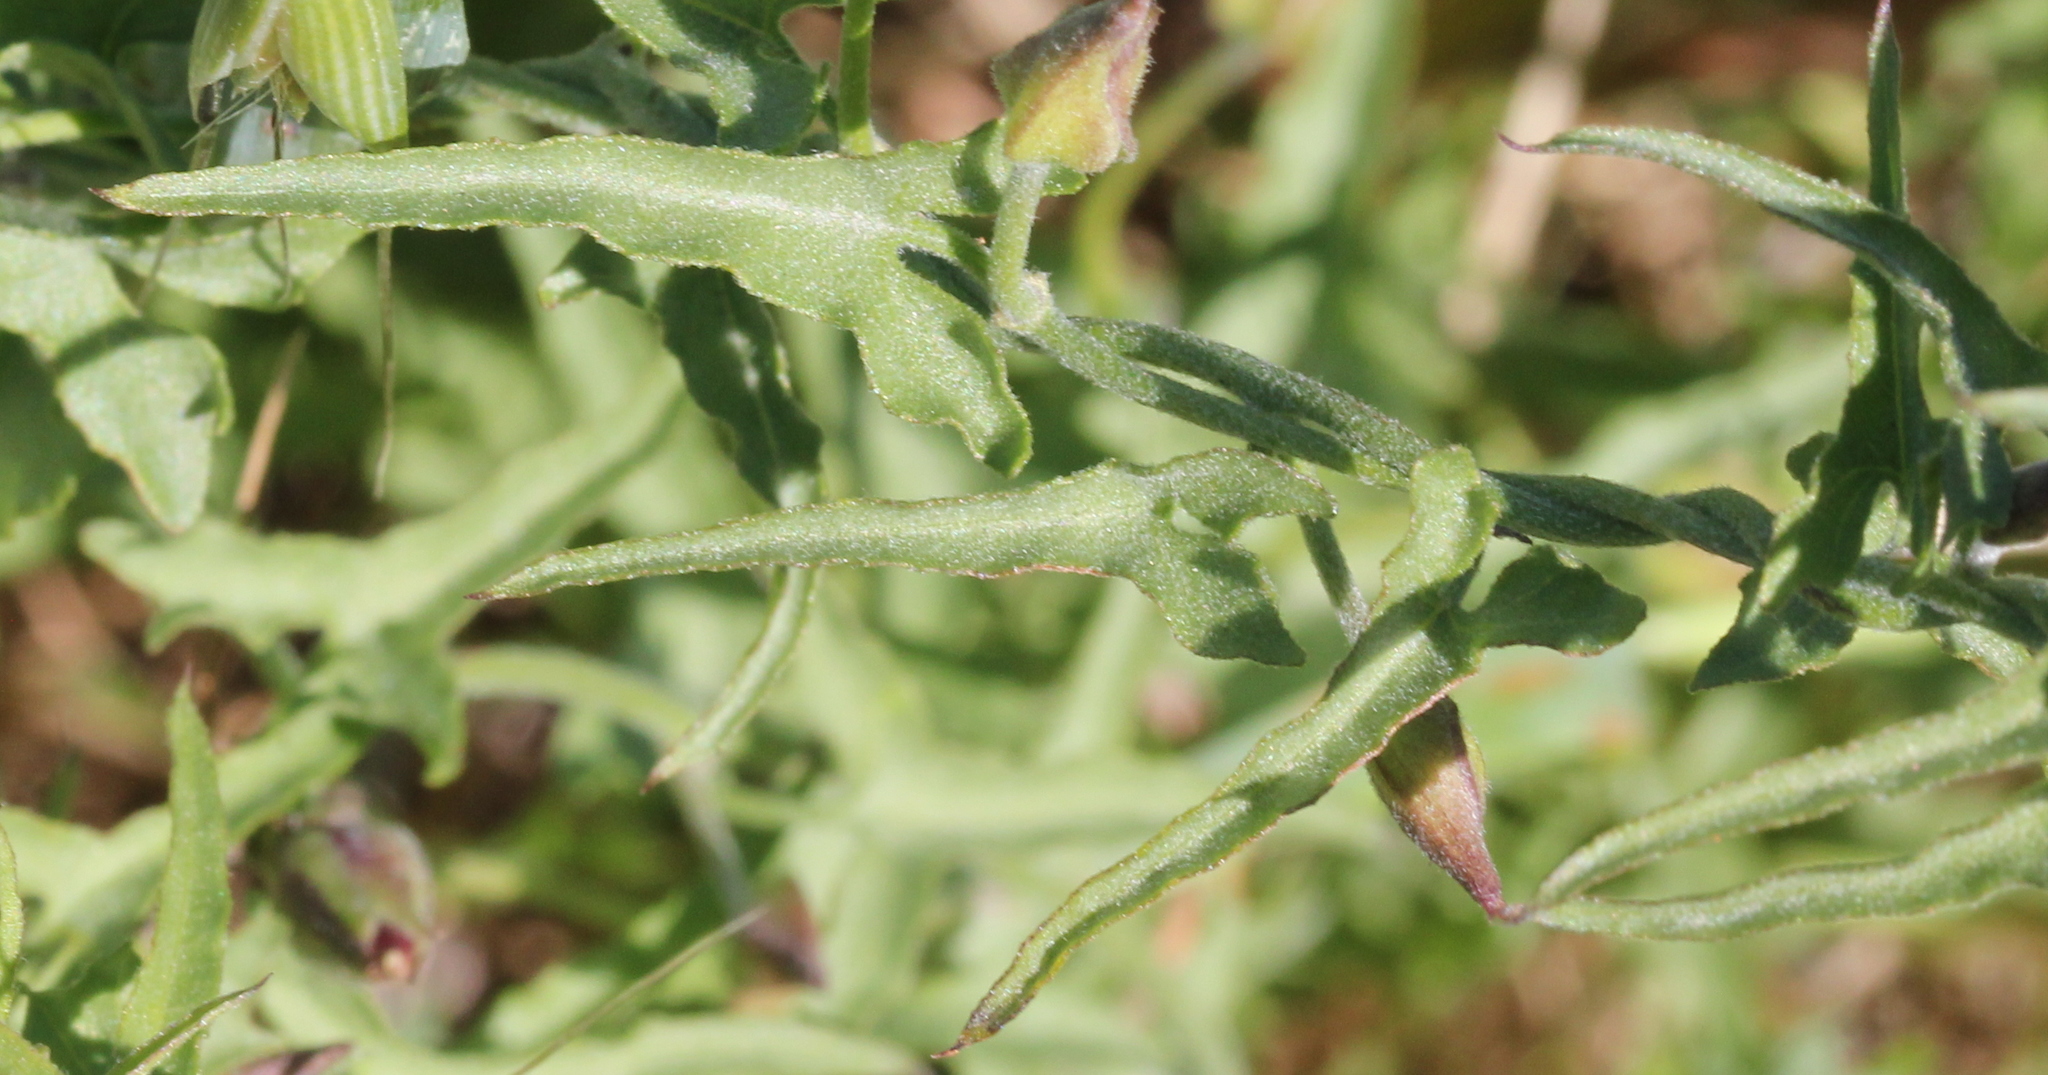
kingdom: Plantae
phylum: Tracheophyta
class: Magnoliopsida
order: Solanales
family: Convolvulaceae
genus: Calystegia
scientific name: Calystegia macrostegia
